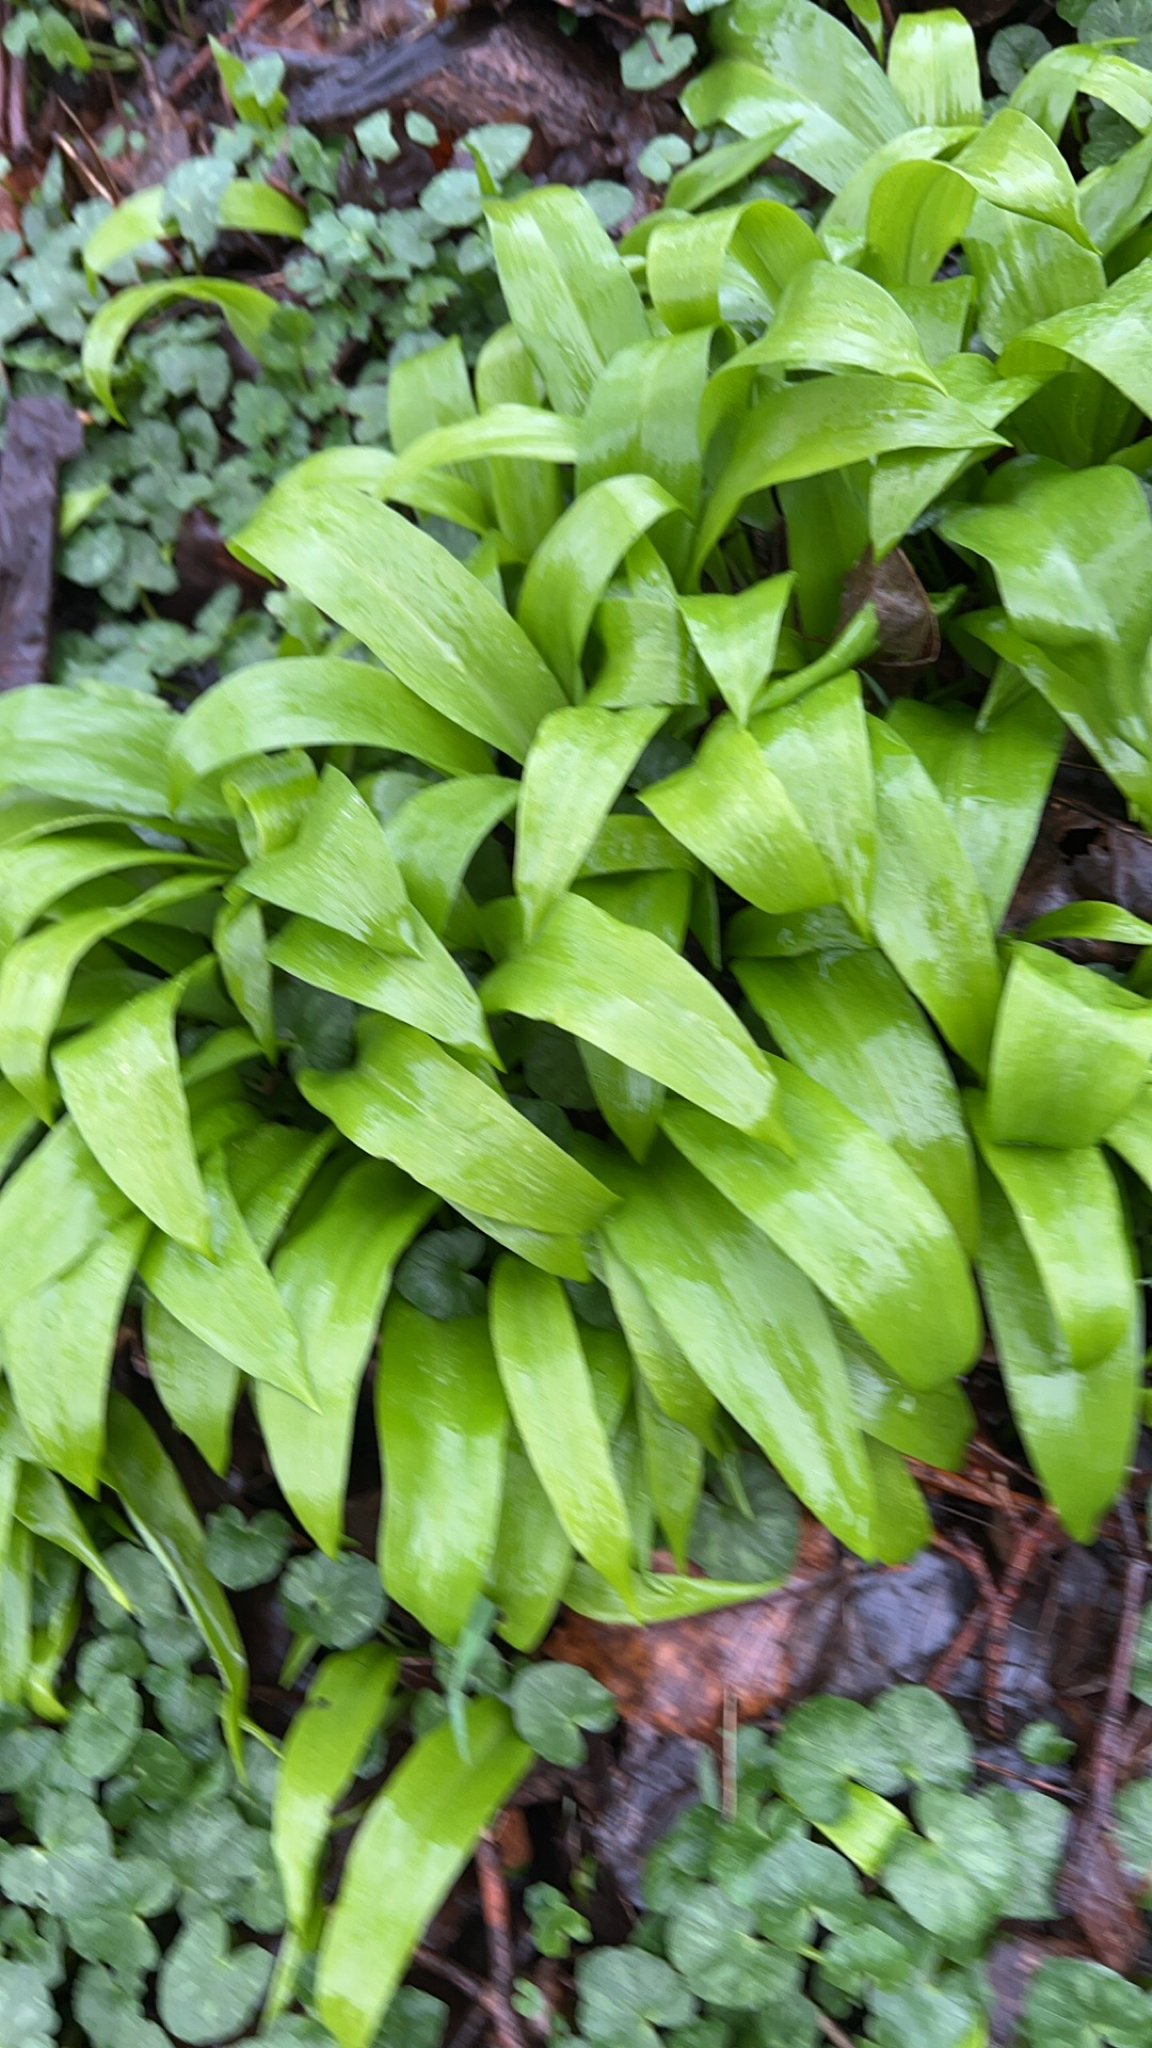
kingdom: Plantae
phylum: Tracheophyta
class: Liliopsida
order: Asparagales
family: Amaryllidaceae
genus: Allium
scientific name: Allium ursinum
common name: Ramsons
